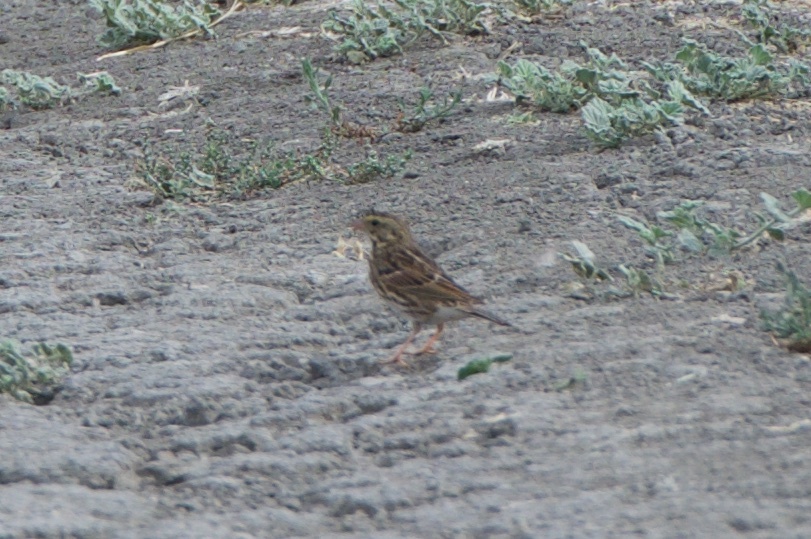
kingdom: Animalia
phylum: Chordata
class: Aves
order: Passeriformes
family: Passerellidae
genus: Passerculus
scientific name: Passerculus sandwichensis
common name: Savannah sparrow
